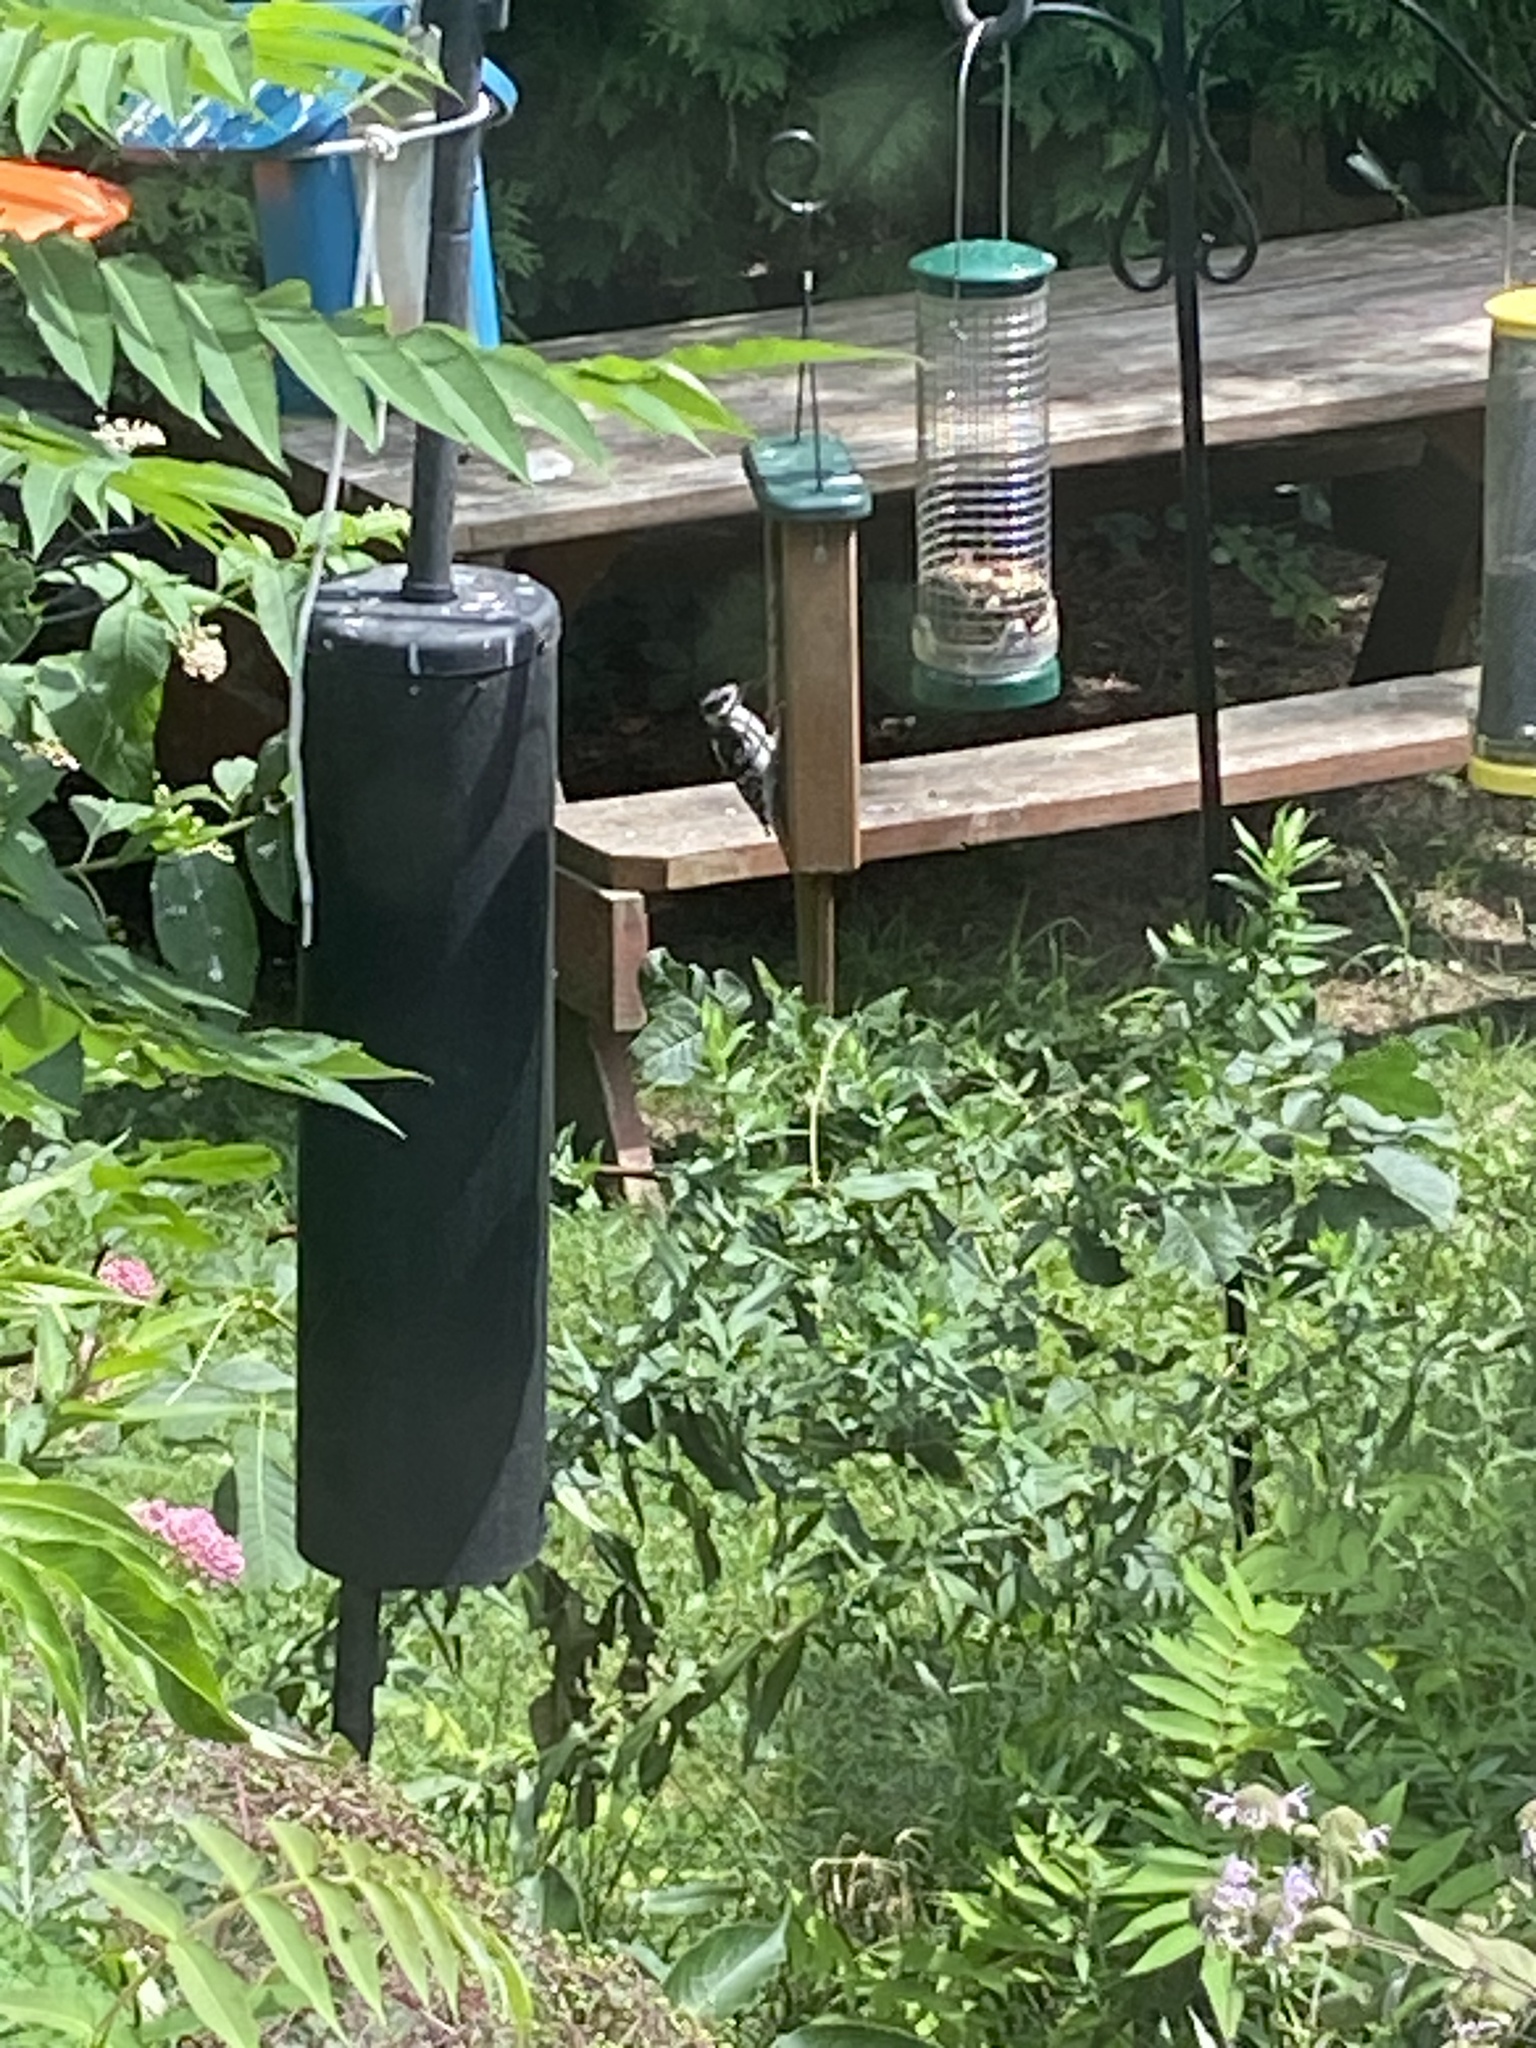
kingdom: Animalia
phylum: Chordata
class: Aves
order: Piciformes
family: Picidae
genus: Dryobates
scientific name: Dryobates pubescens
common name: Downy woodpecker
